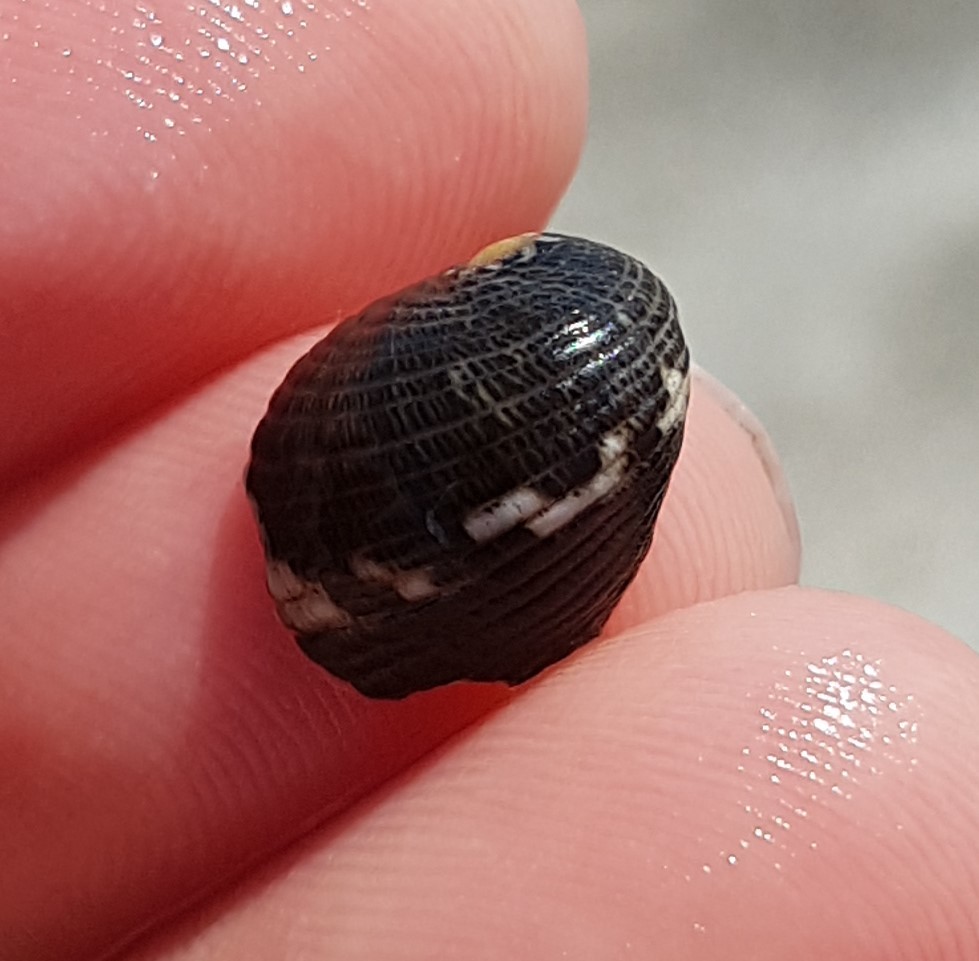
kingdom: Animalia
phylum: Mollusca
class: Gastropoda
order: Cycloneritida
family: Neritidae
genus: Nerita
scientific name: Nerita funiculata
